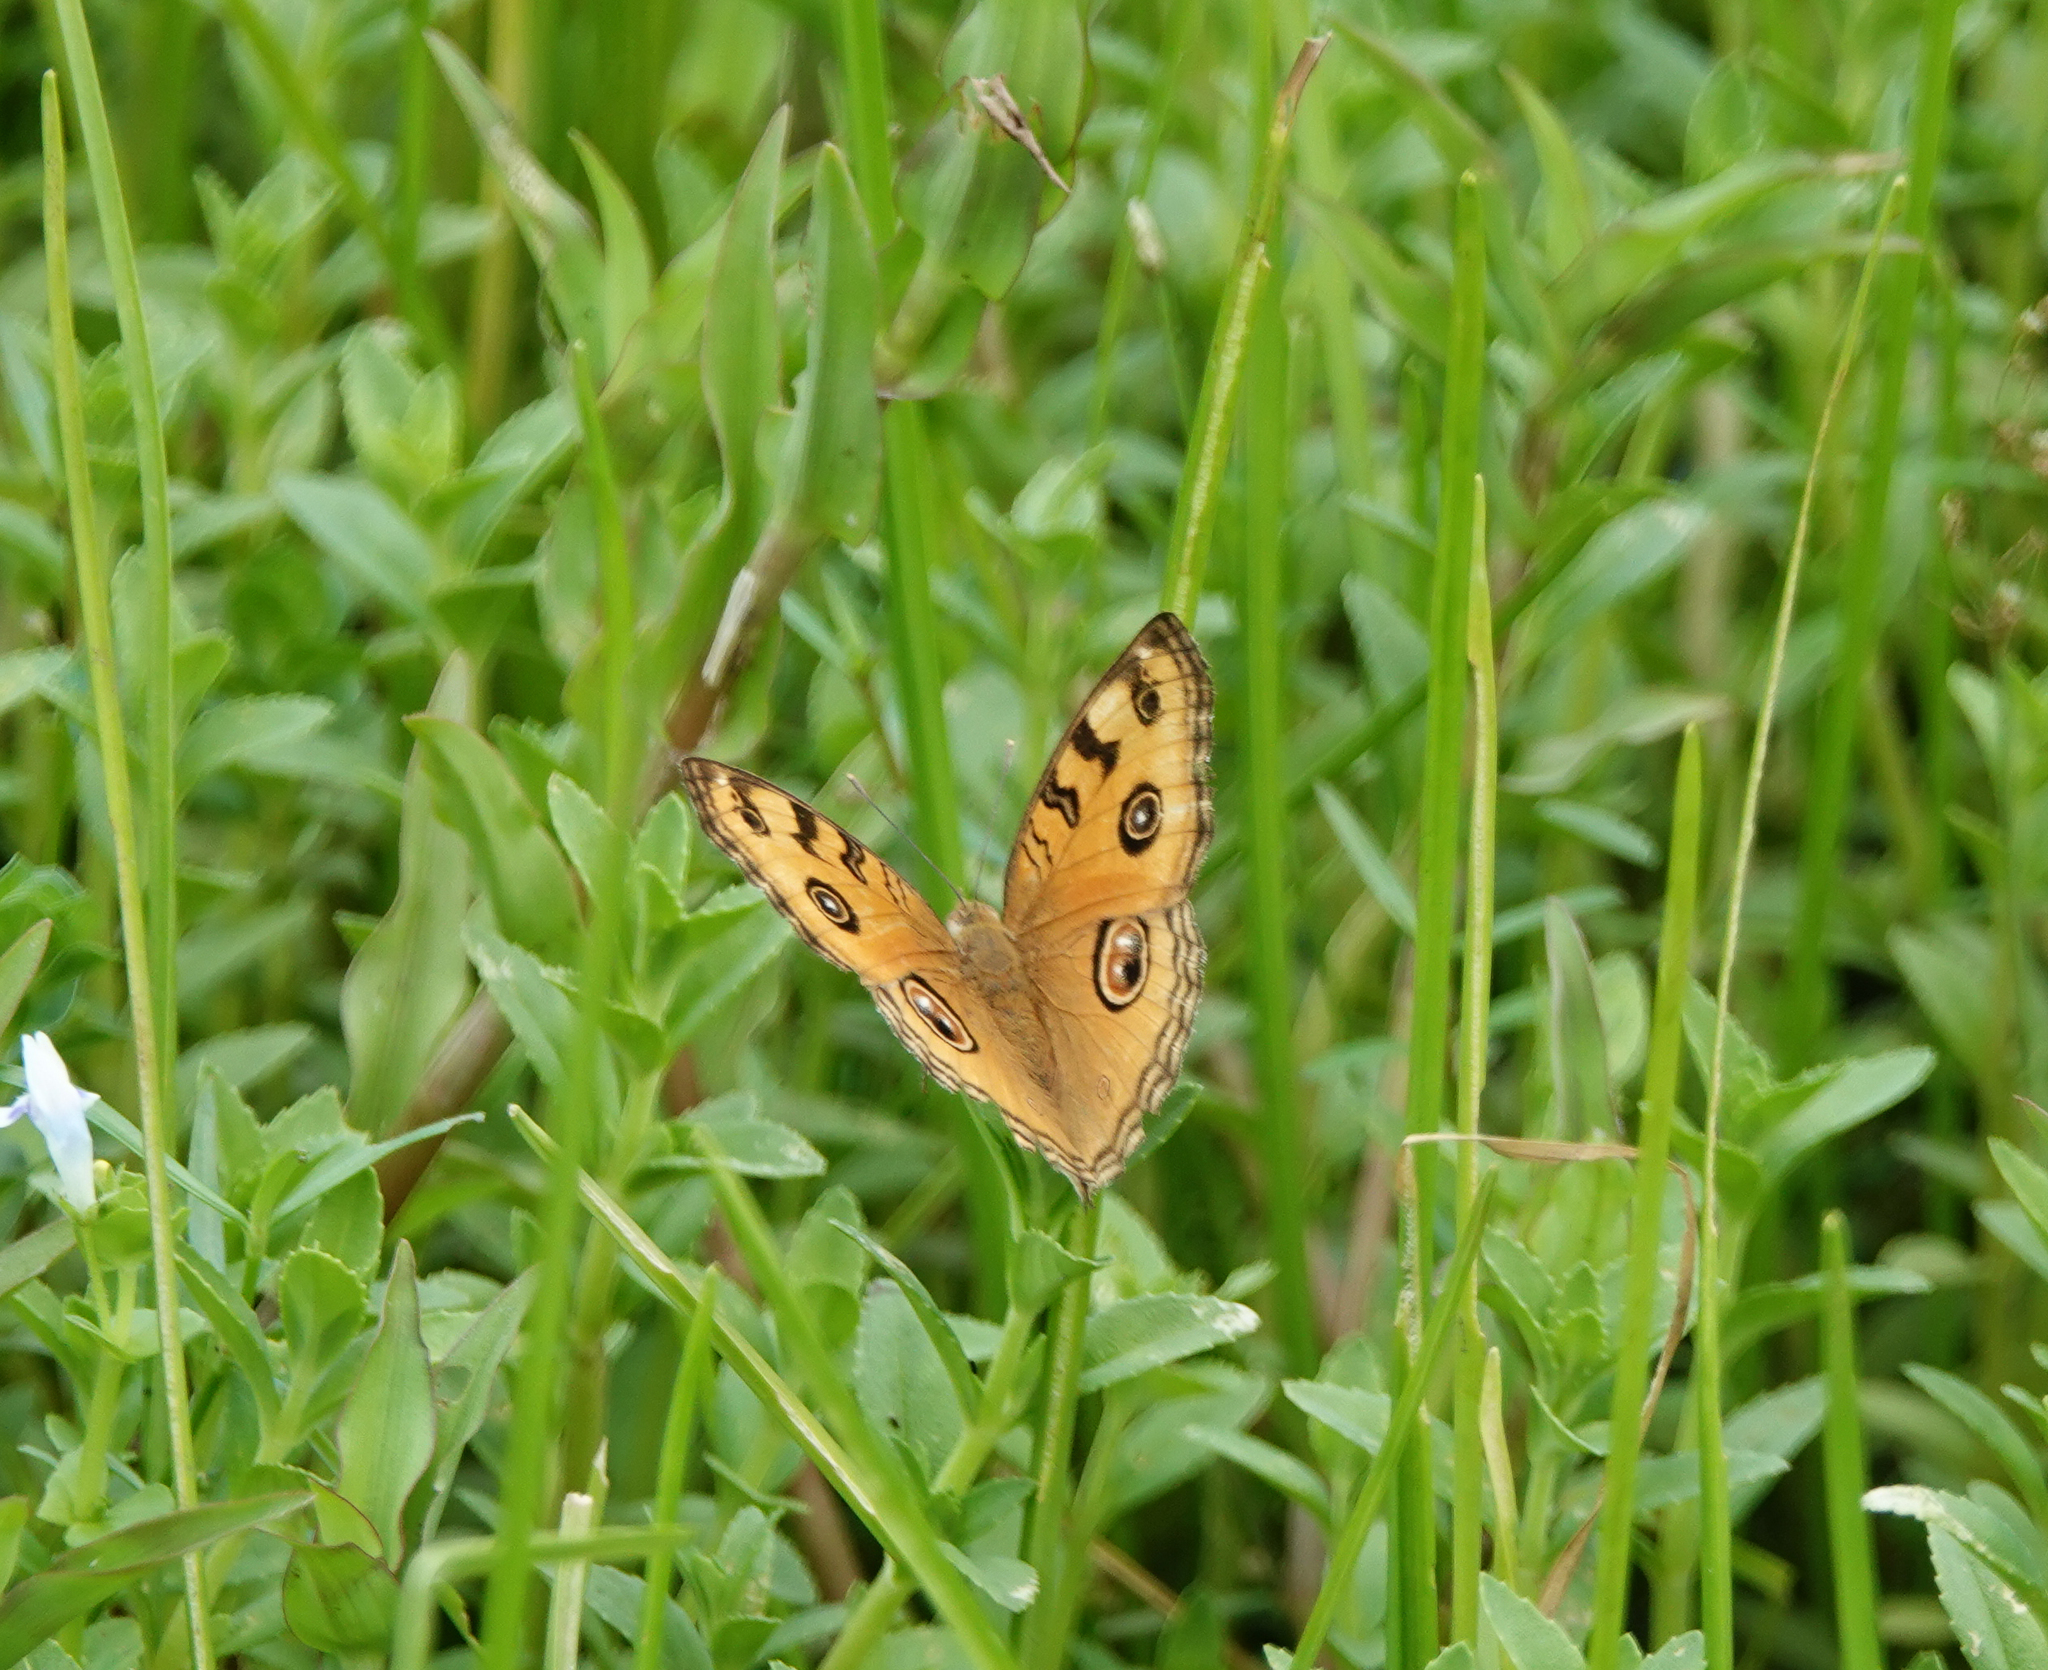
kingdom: Animalia
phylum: Arthropoda
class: Insecta
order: Lepidoptera
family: Nymphalidae
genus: Junonia
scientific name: Junonia almana
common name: Peacock pansy
